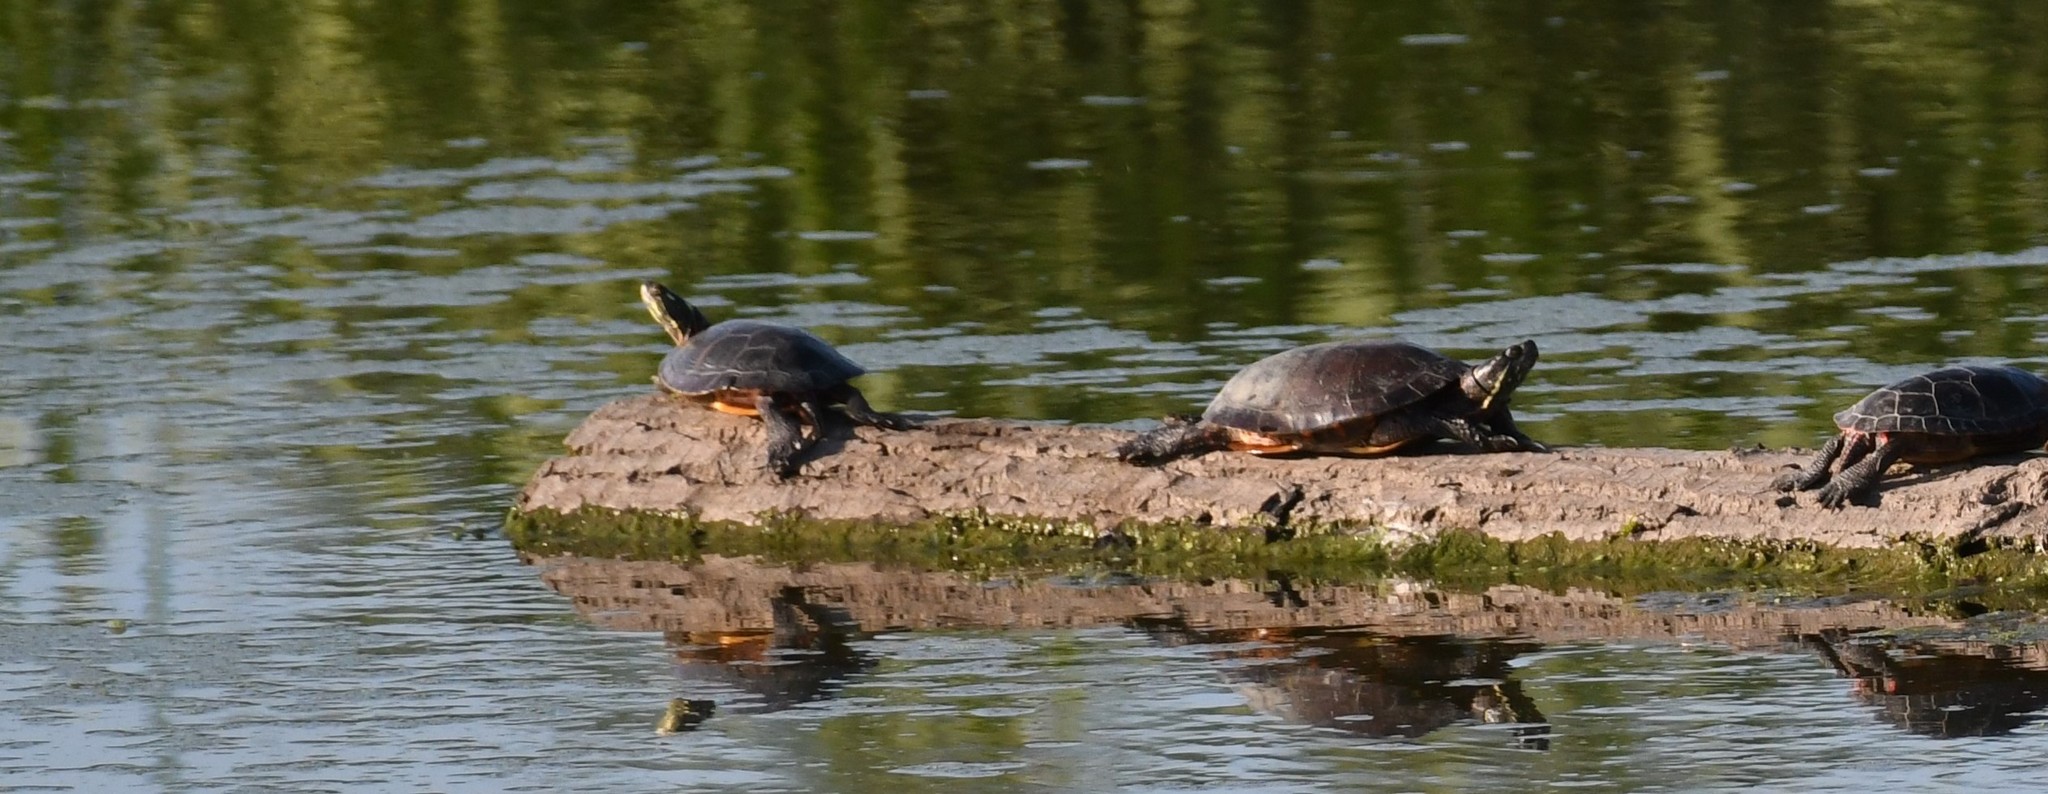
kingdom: Animalia
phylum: Chordata
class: Testudines
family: Emydidae
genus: Chrysemys
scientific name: Chrysemys picta
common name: Painted turtle
